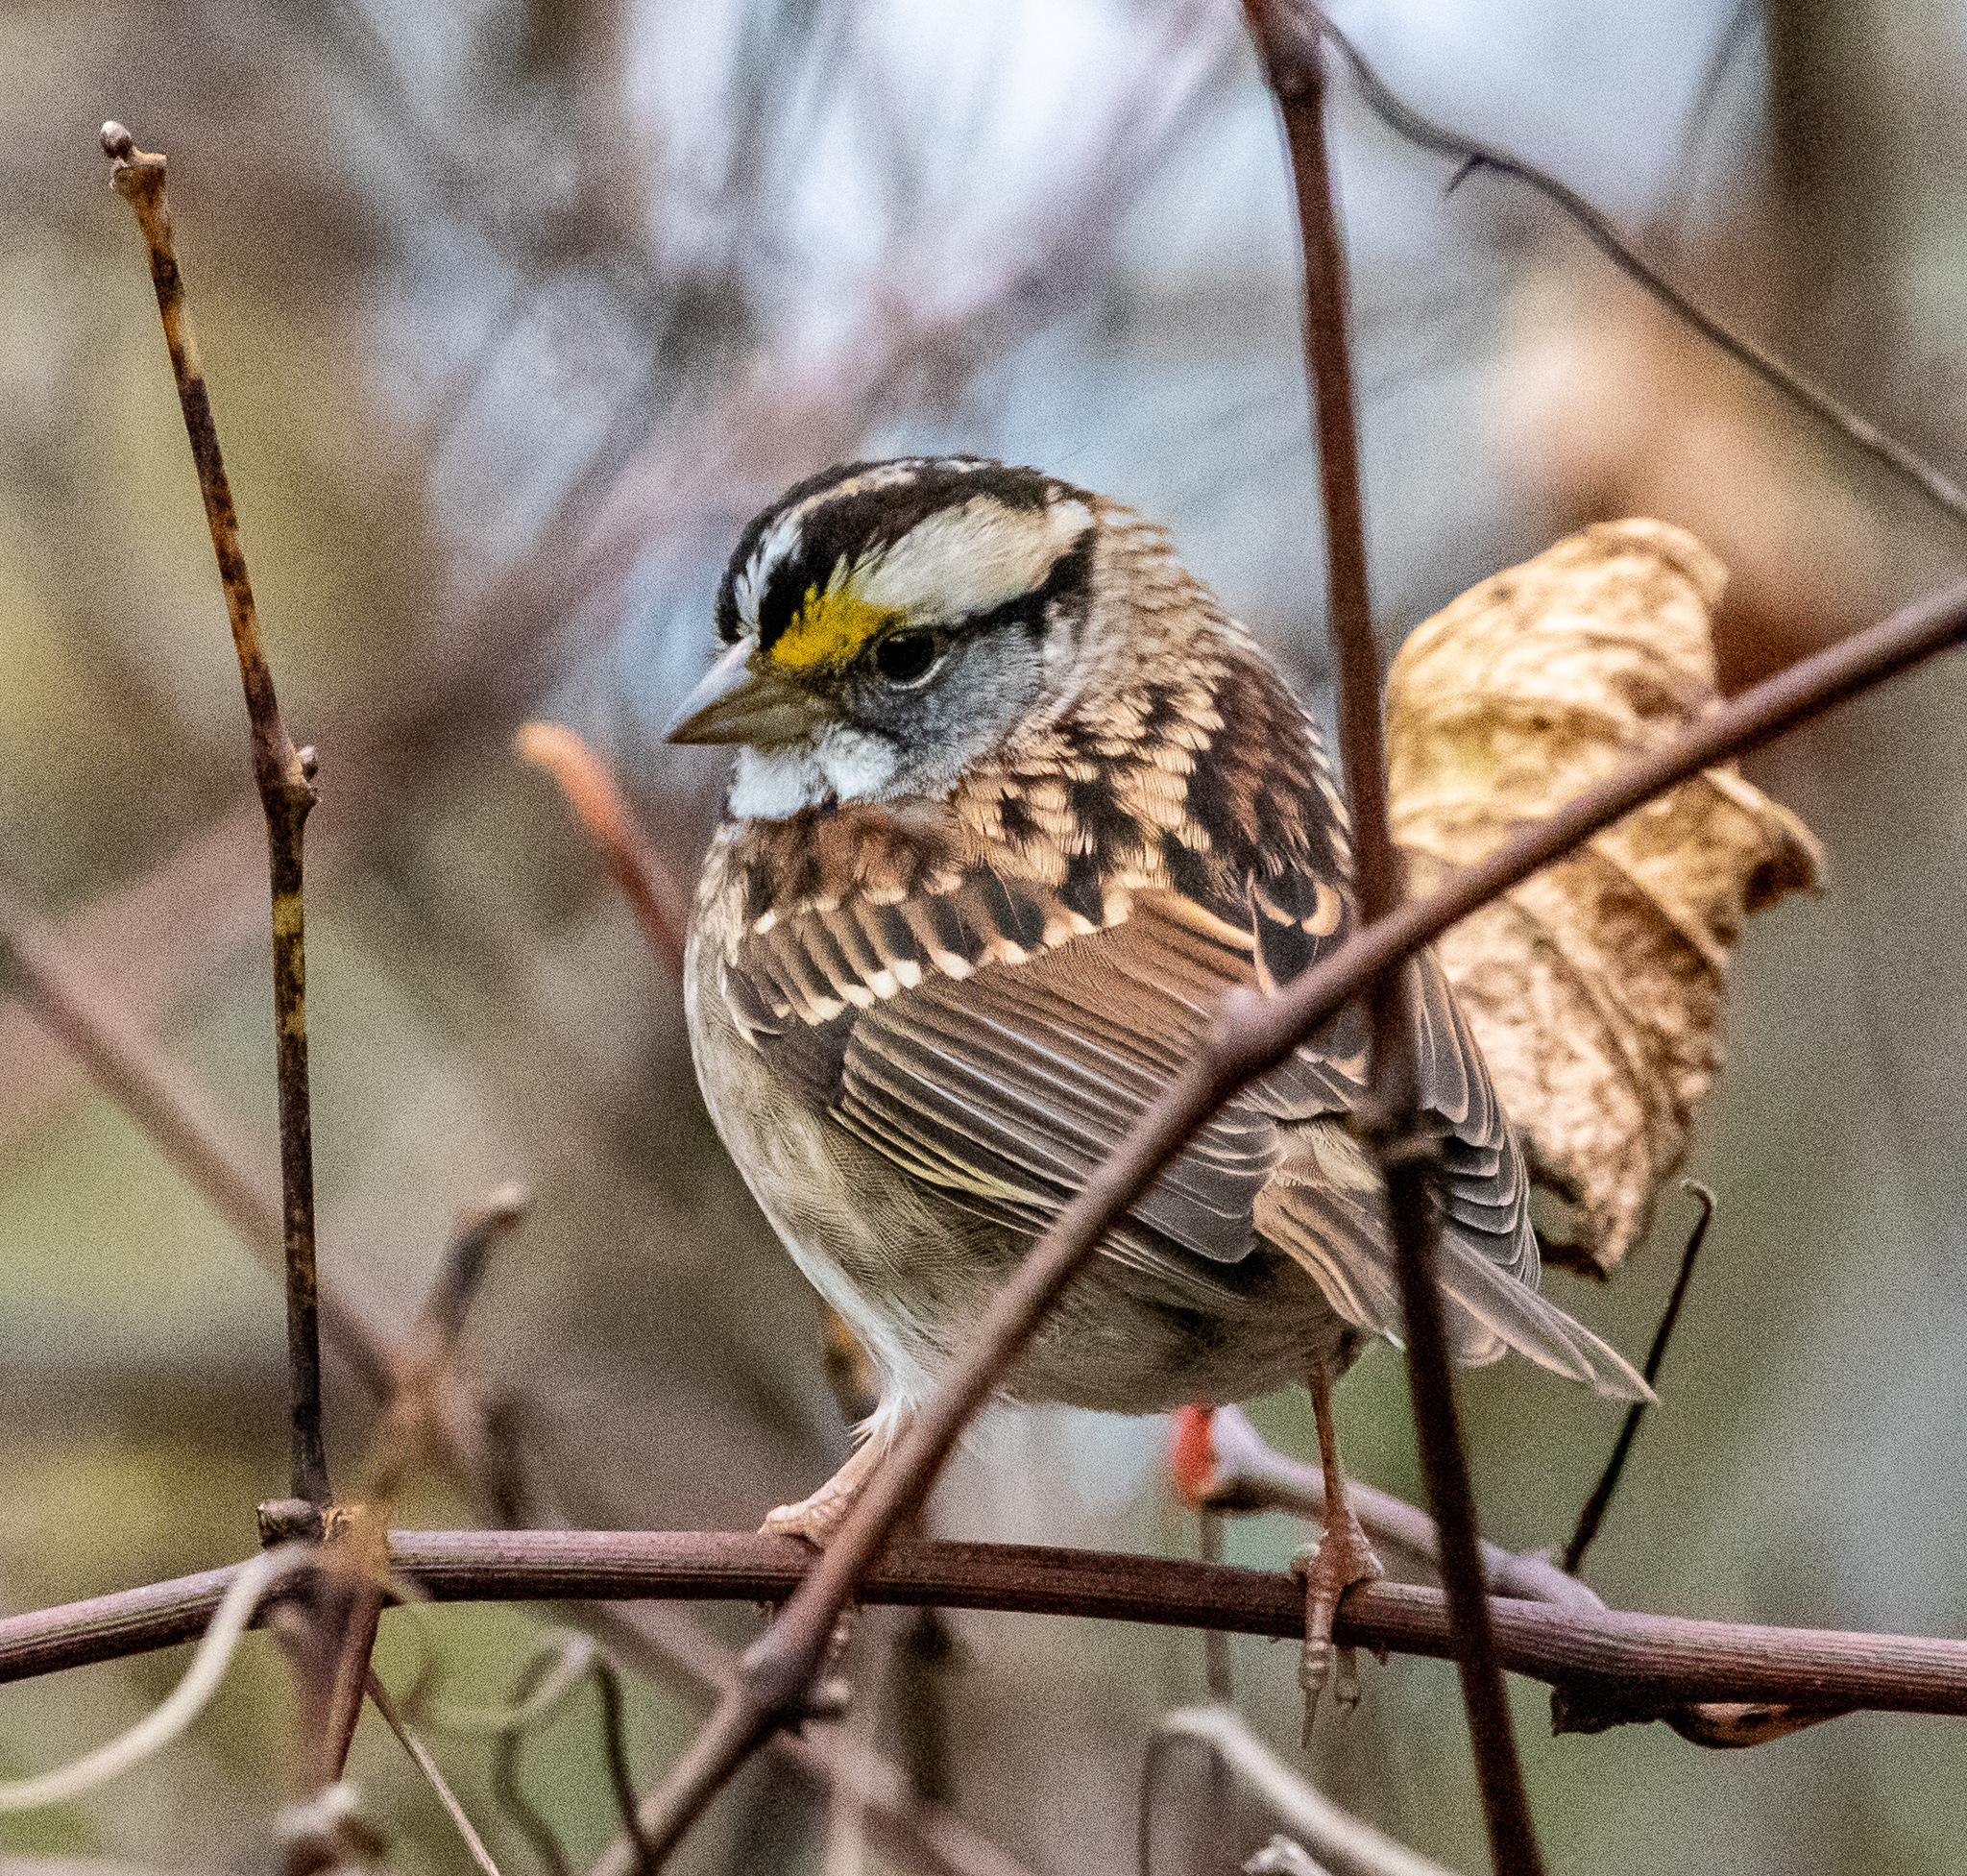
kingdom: Animalia
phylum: Chordata
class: Aves
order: Passeriformes
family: Passerellidae
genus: Zonotrichia
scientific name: Zonotrichia albicollis
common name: White-throated sparrow
